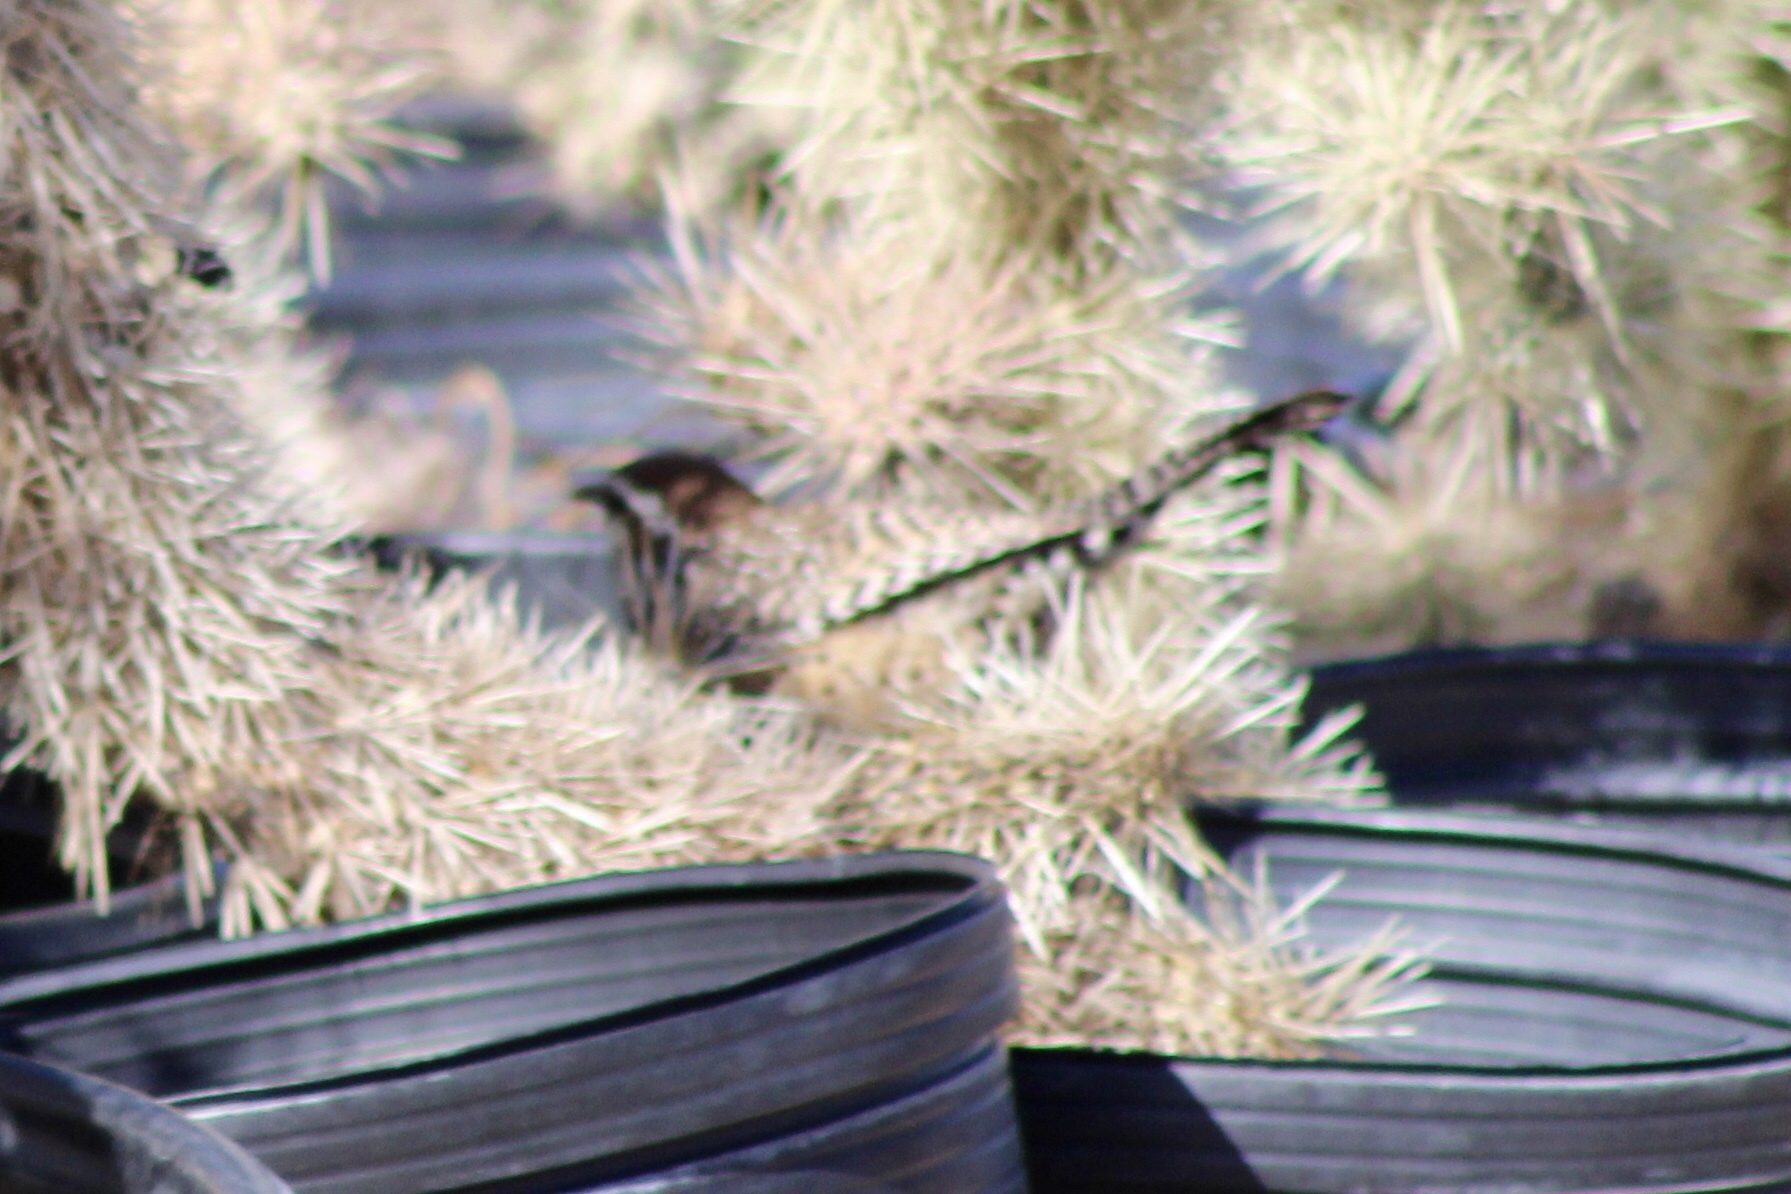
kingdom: Animalia
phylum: Chordata
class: Aves
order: Passeriformes
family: Troglodytidae
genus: Campylorhynchus
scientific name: Campylorhynchus brunneicapillus
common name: Cactus wren
